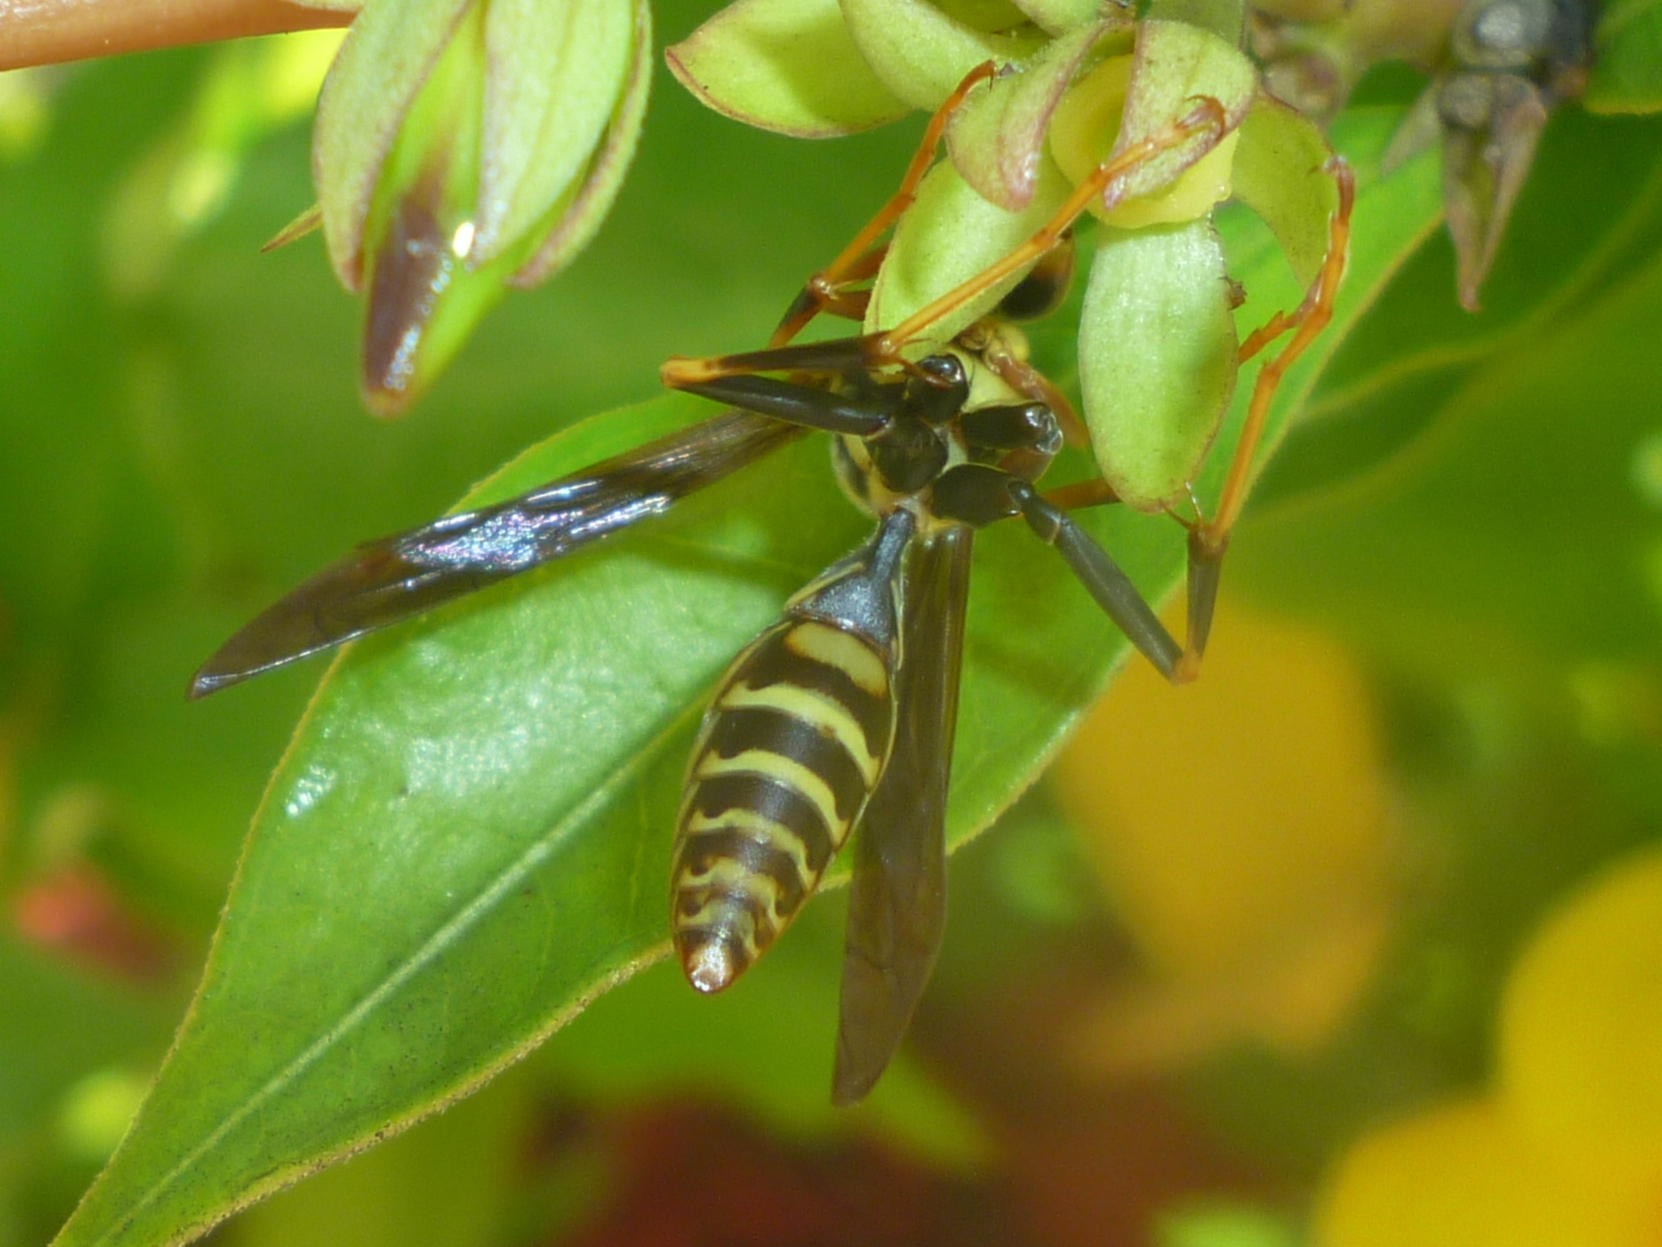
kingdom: Animalia
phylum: Arthropoda
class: Insecta
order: Hymenoptera
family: Eumenidae
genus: Polistes
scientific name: Polistes exclamans
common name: Paper wasp
